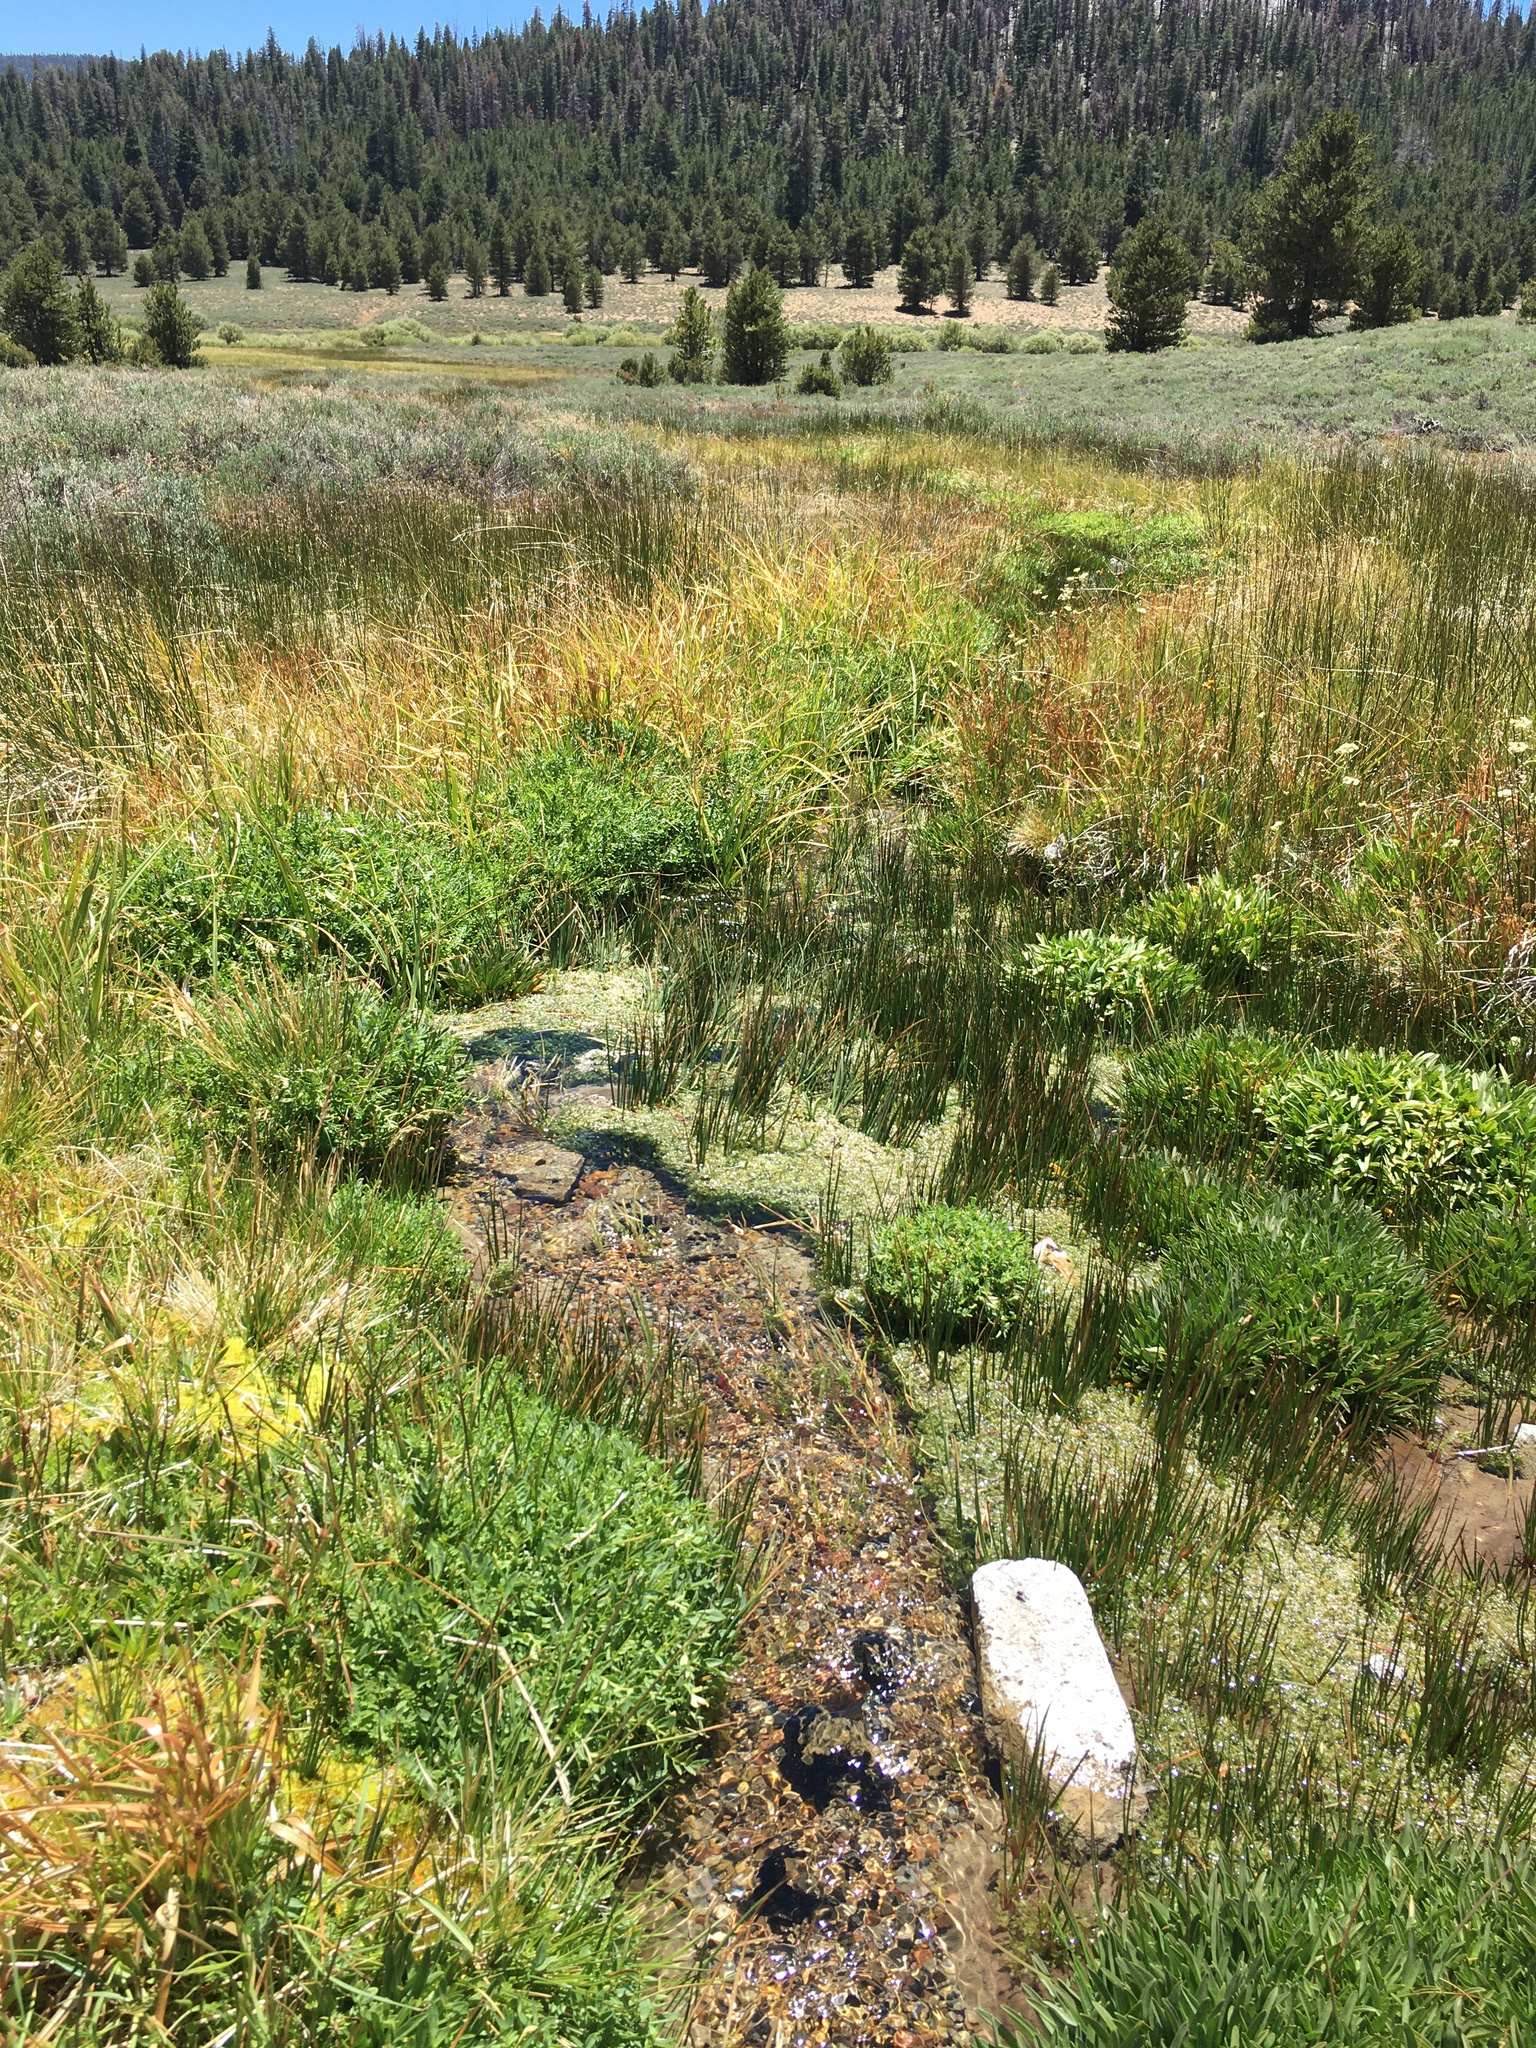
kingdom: Plantae
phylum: Tracheophyta
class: Liliopsida
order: Alismatales
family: Araceae
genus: Lemna
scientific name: Lemna trisulca
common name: Ivy-leaved duckweed
